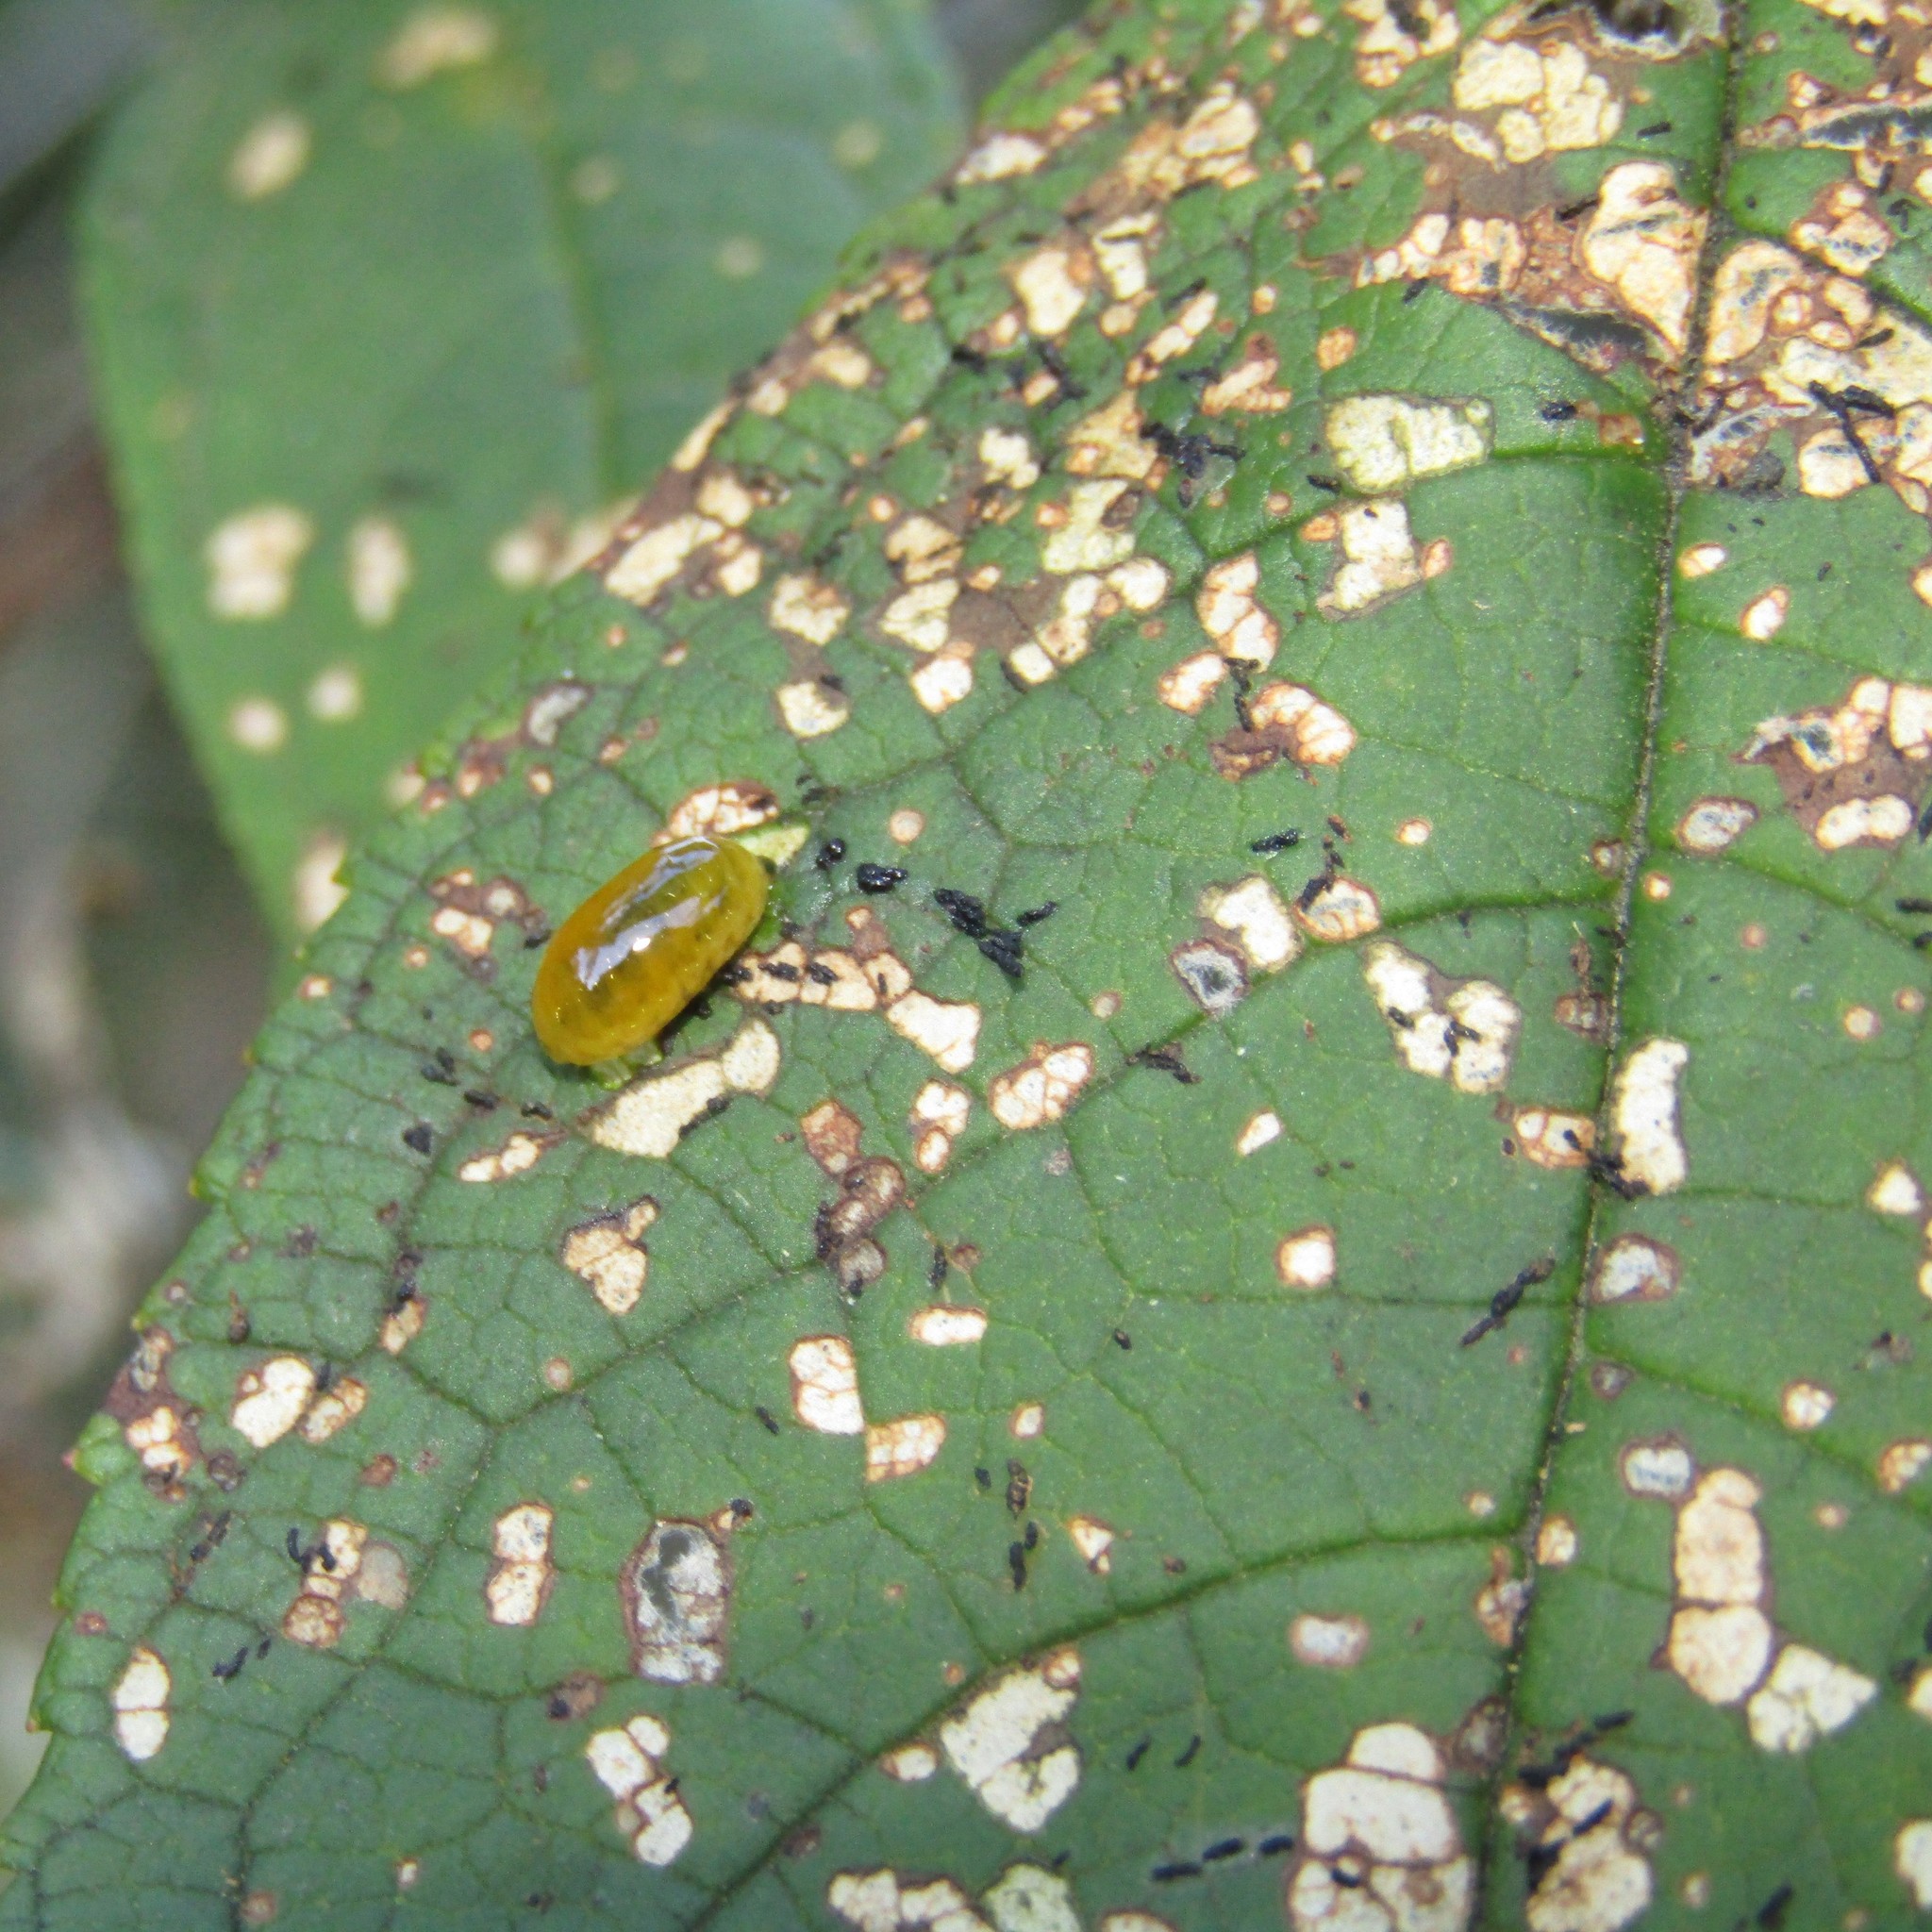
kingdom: Plantae
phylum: Tracheophyta
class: Magnoliopsida
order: Lamiales
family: Scrophulariaceae
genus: Buddleja
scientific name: Buddleja davidii
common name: Butterfly-bush
